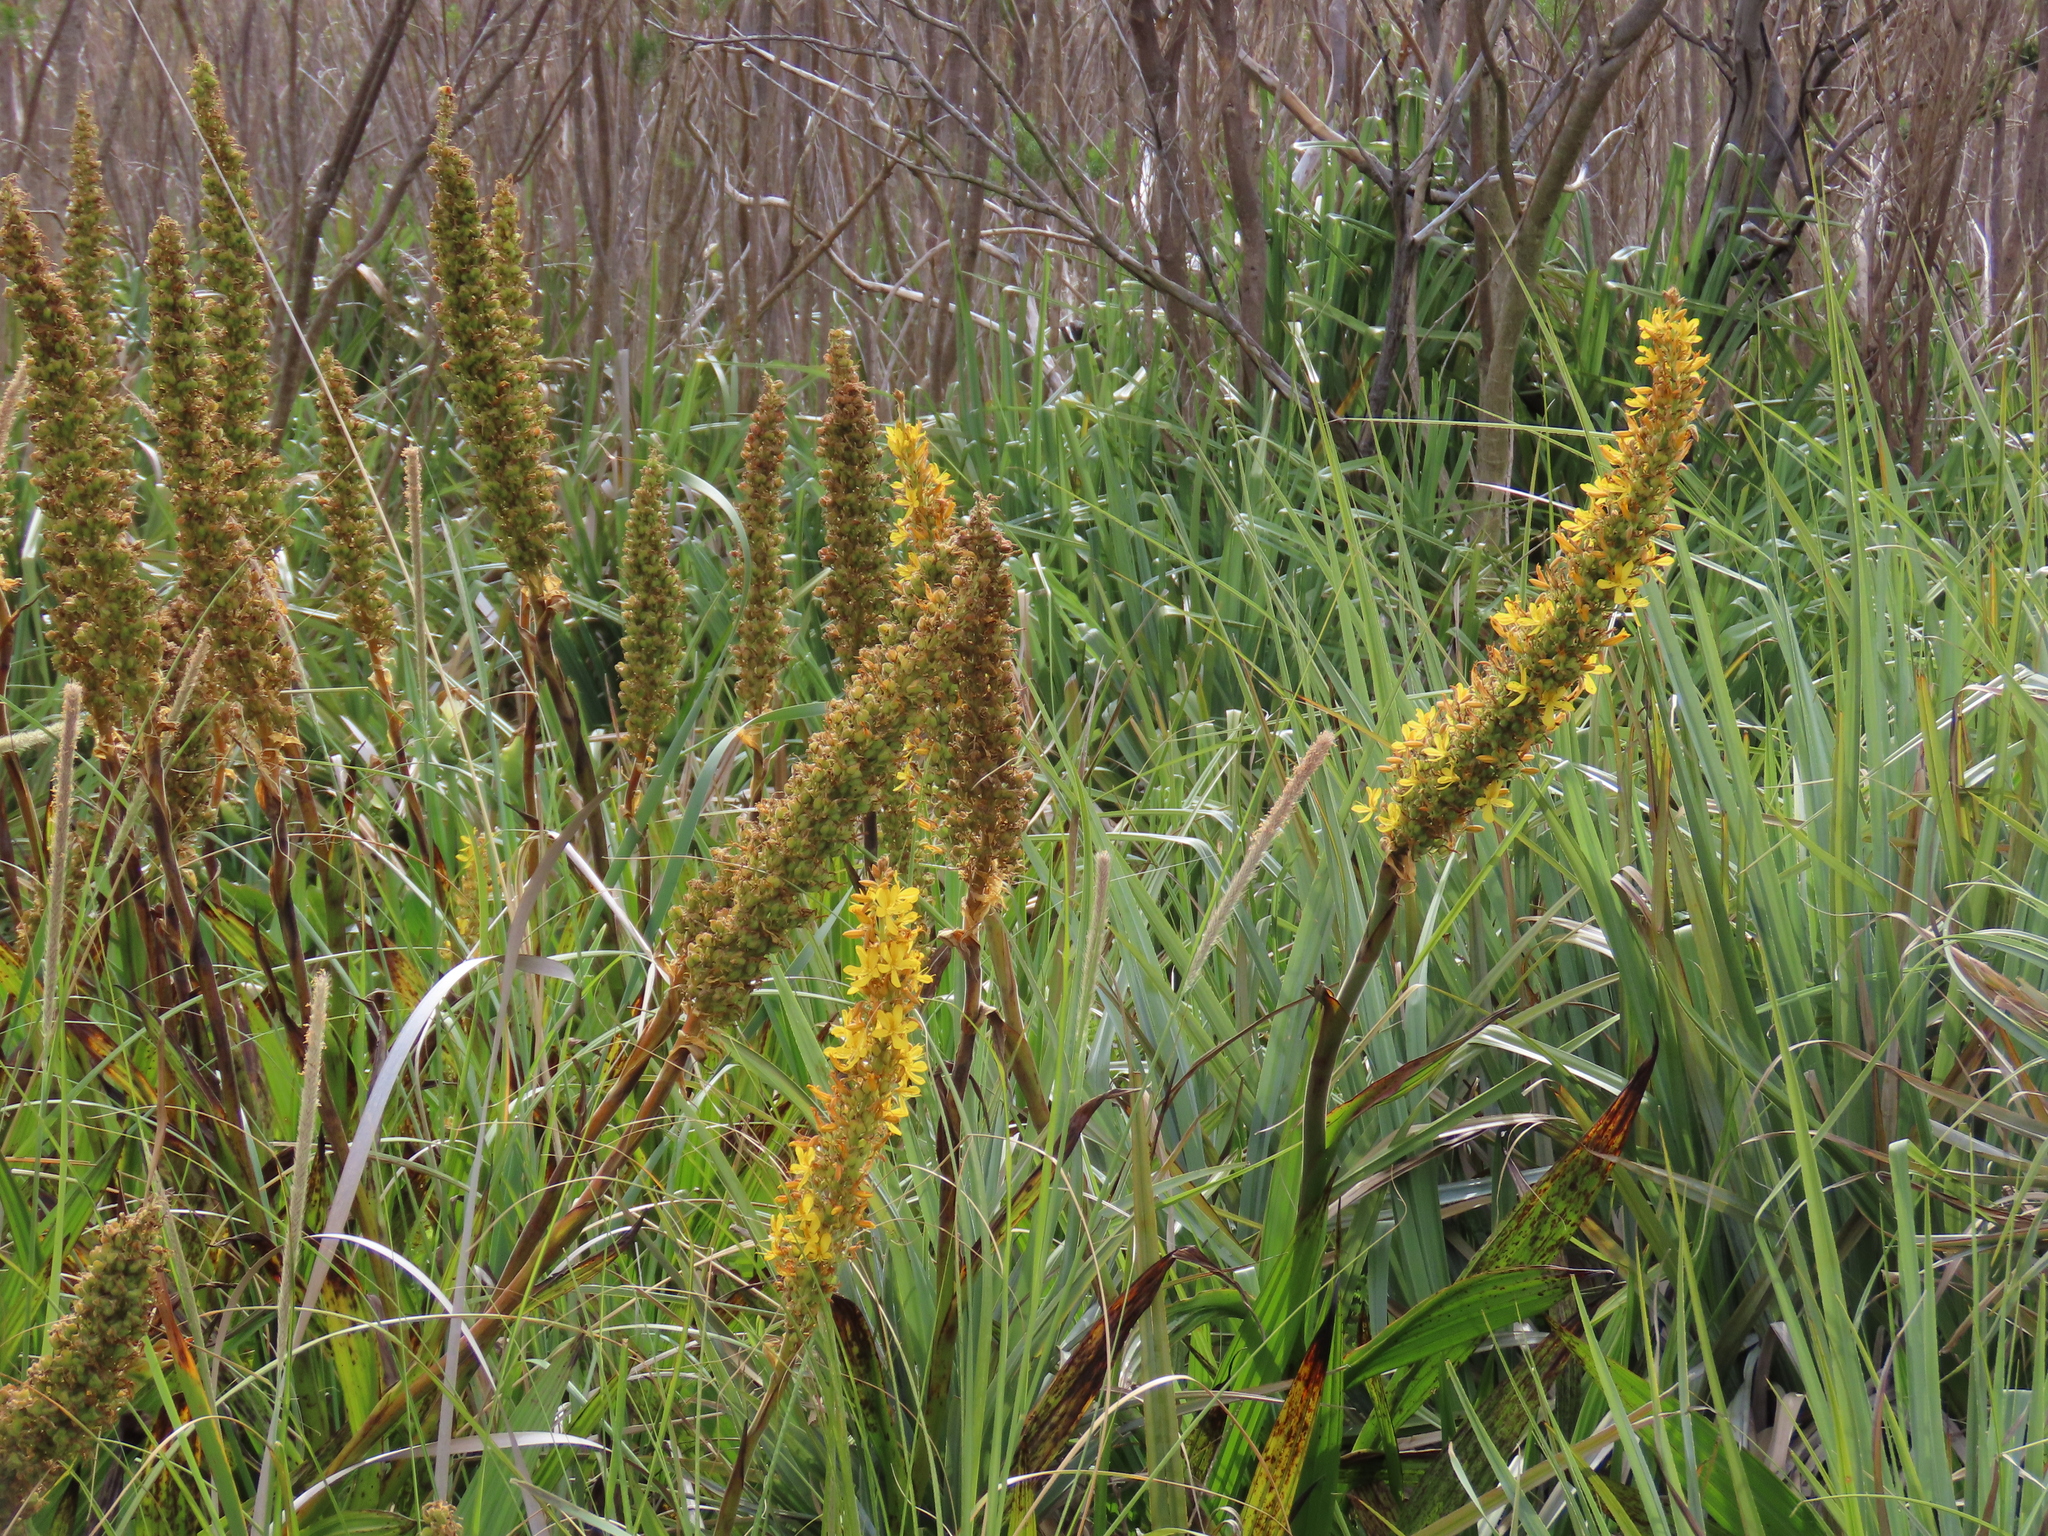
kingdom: Plantae
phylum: Tracheophyta
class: Liliopsida
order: Commelinales
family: Haemodoraceae
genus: Wachendorfia
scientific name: Wachendorfia thyrsiflora
